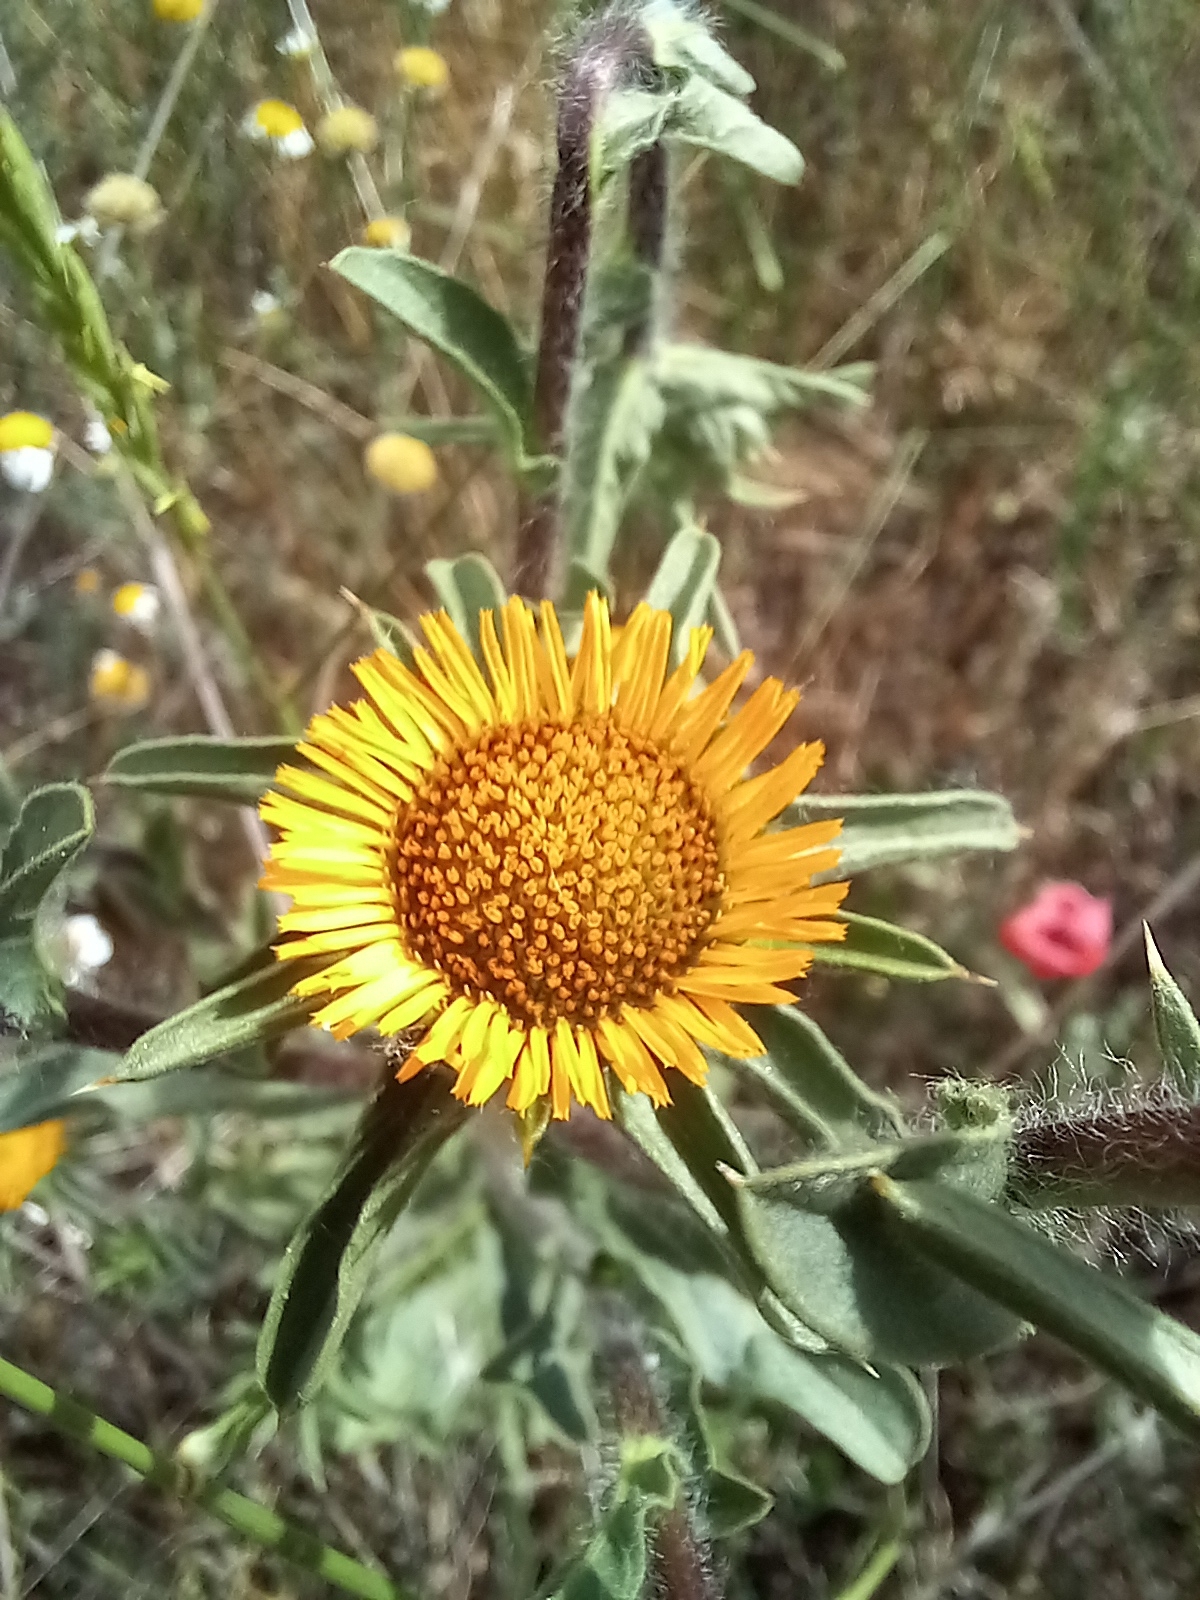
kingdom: Plantae
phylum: Tracheophyta
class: Magnoliopsida
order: Asterales
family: Asteraceae
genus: Pallenis
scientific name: Pallenis spinosa
